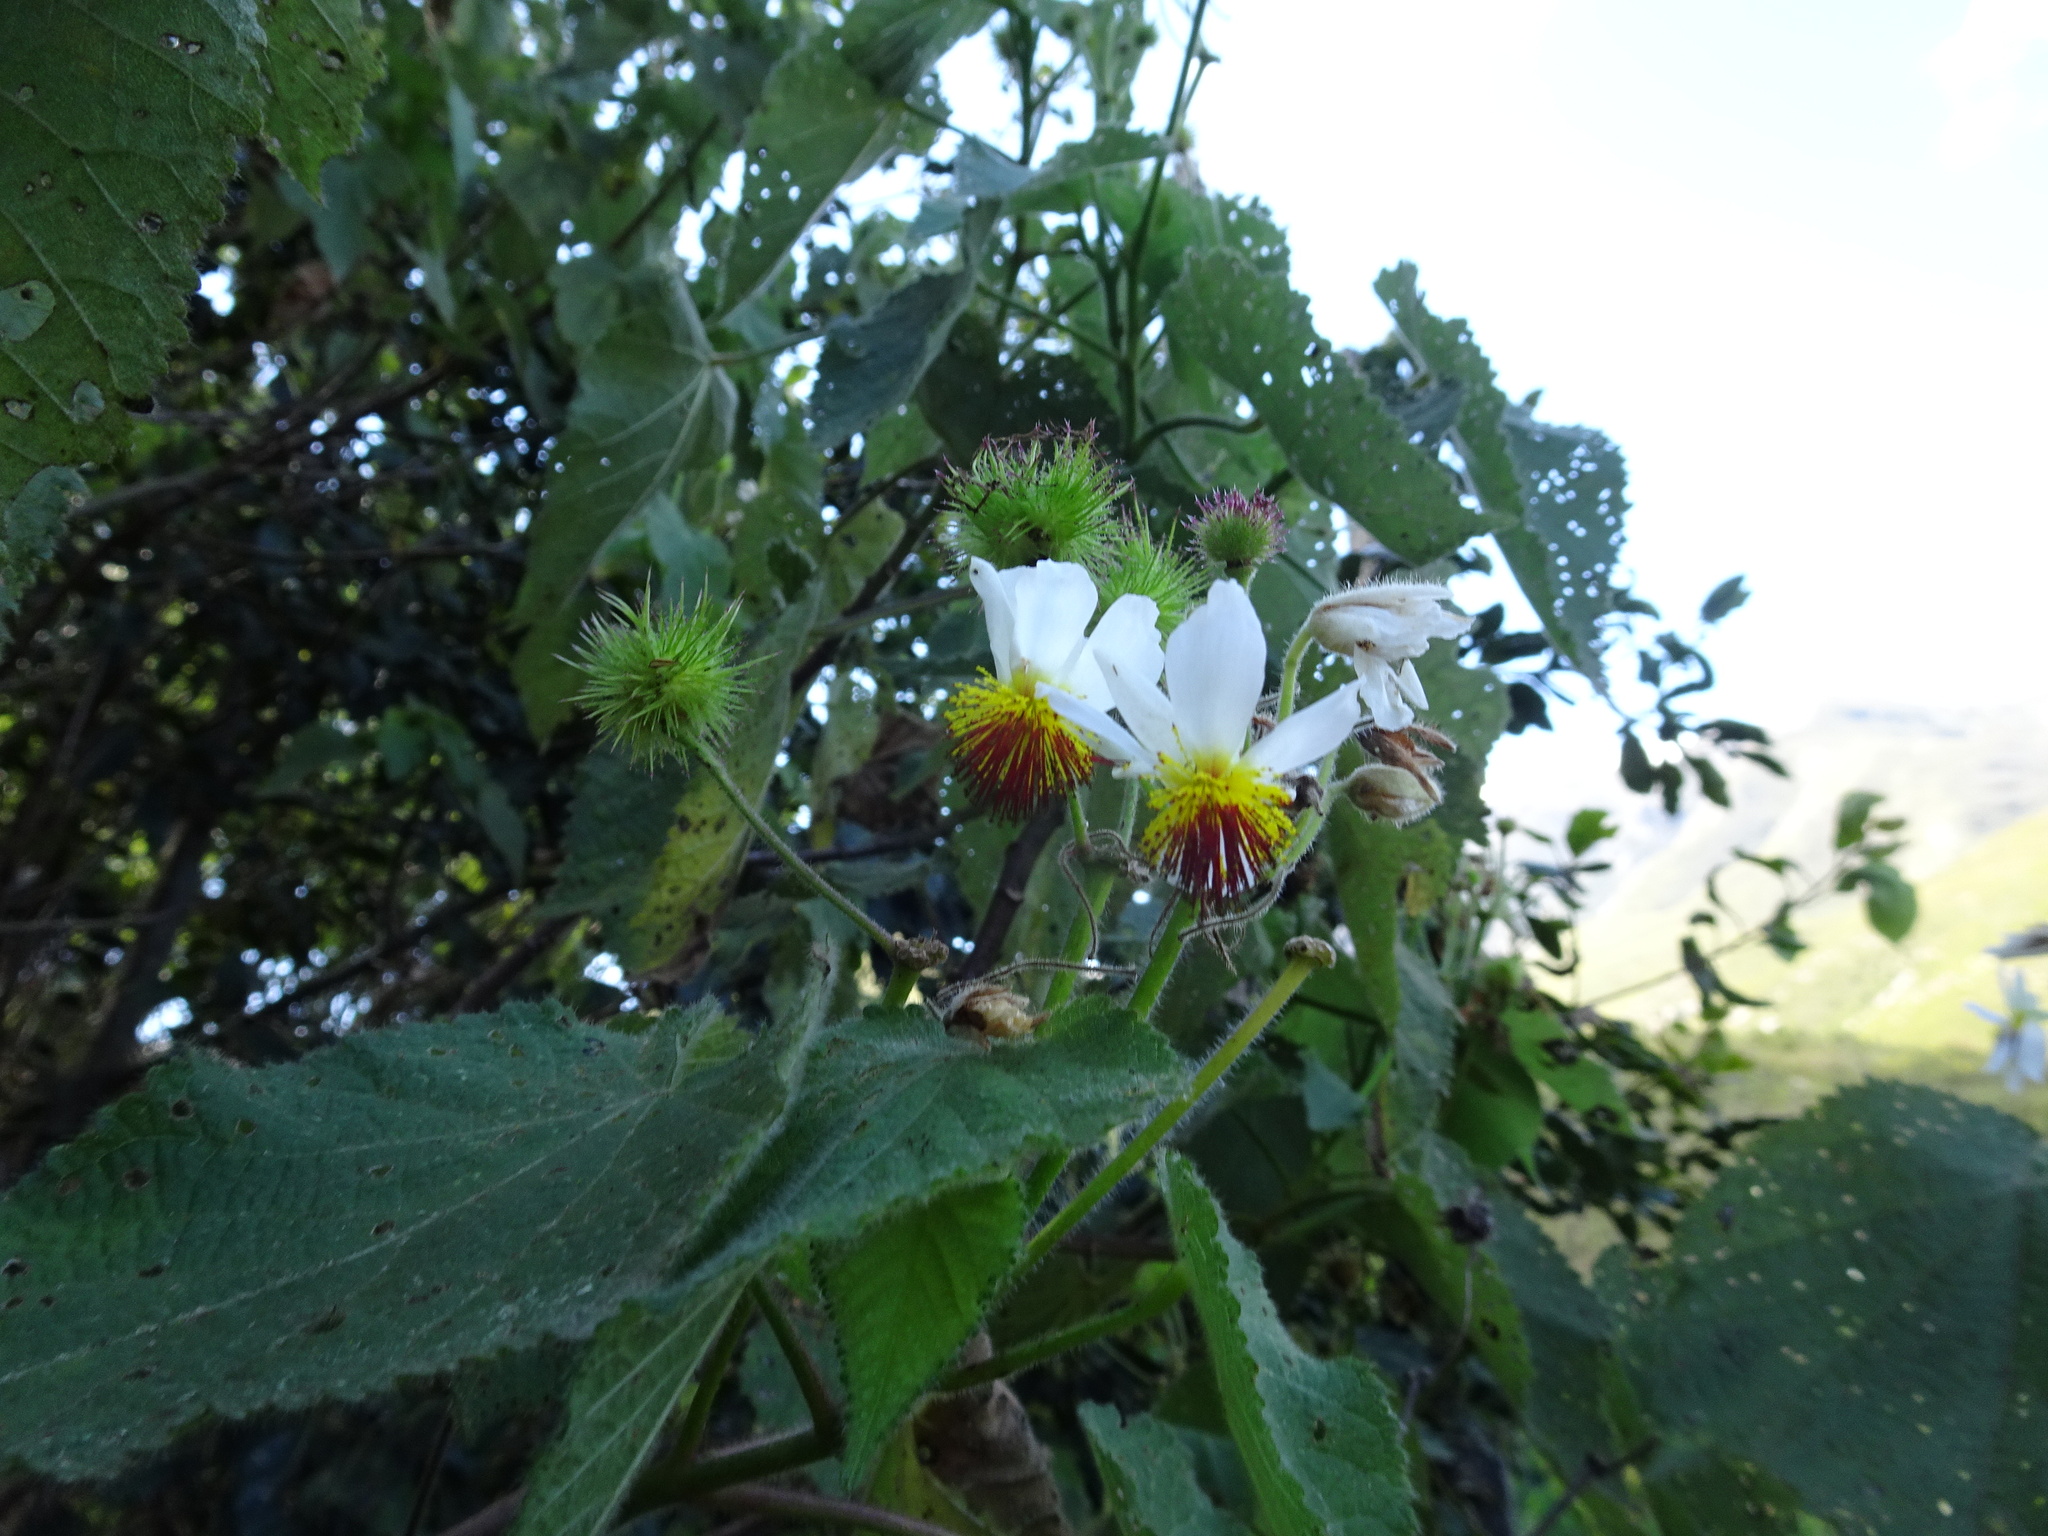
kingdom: Plantae
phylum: Tracheophyta
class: Magnoliopsida
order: Malvales
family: Malvaceae
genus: Sparrmannia
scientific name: Sparrmannia africana
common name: African-hemp
